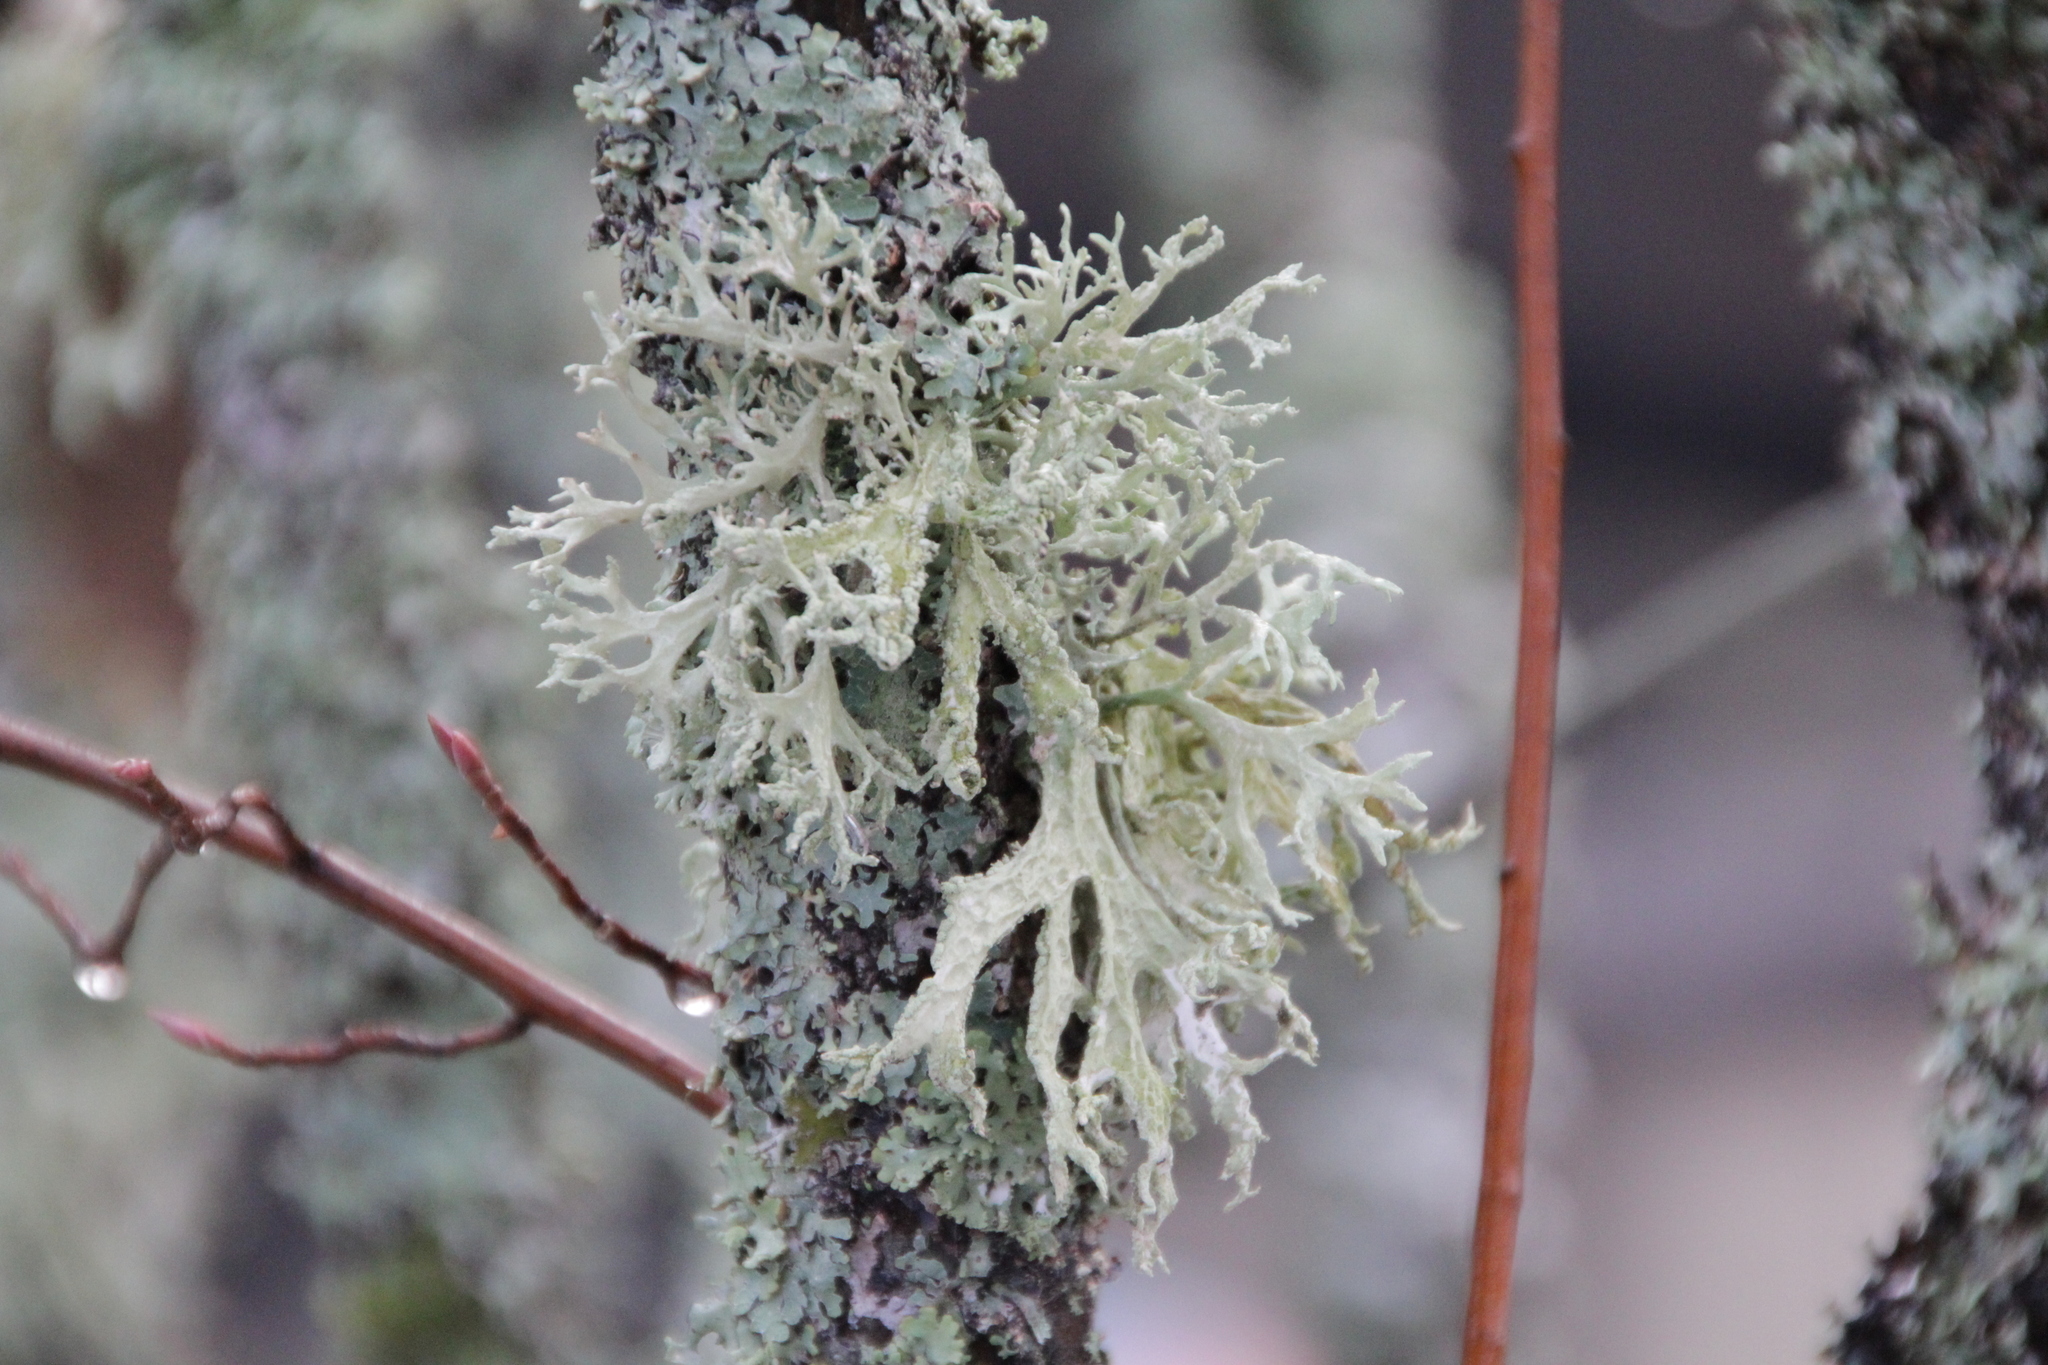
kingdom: Fungi
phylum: Ascomycota
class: Lecanoromycetes
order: Lecanorales
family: Parmeliaceae
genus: Evernia
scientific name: Evernia prunastri
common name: Oak moss
